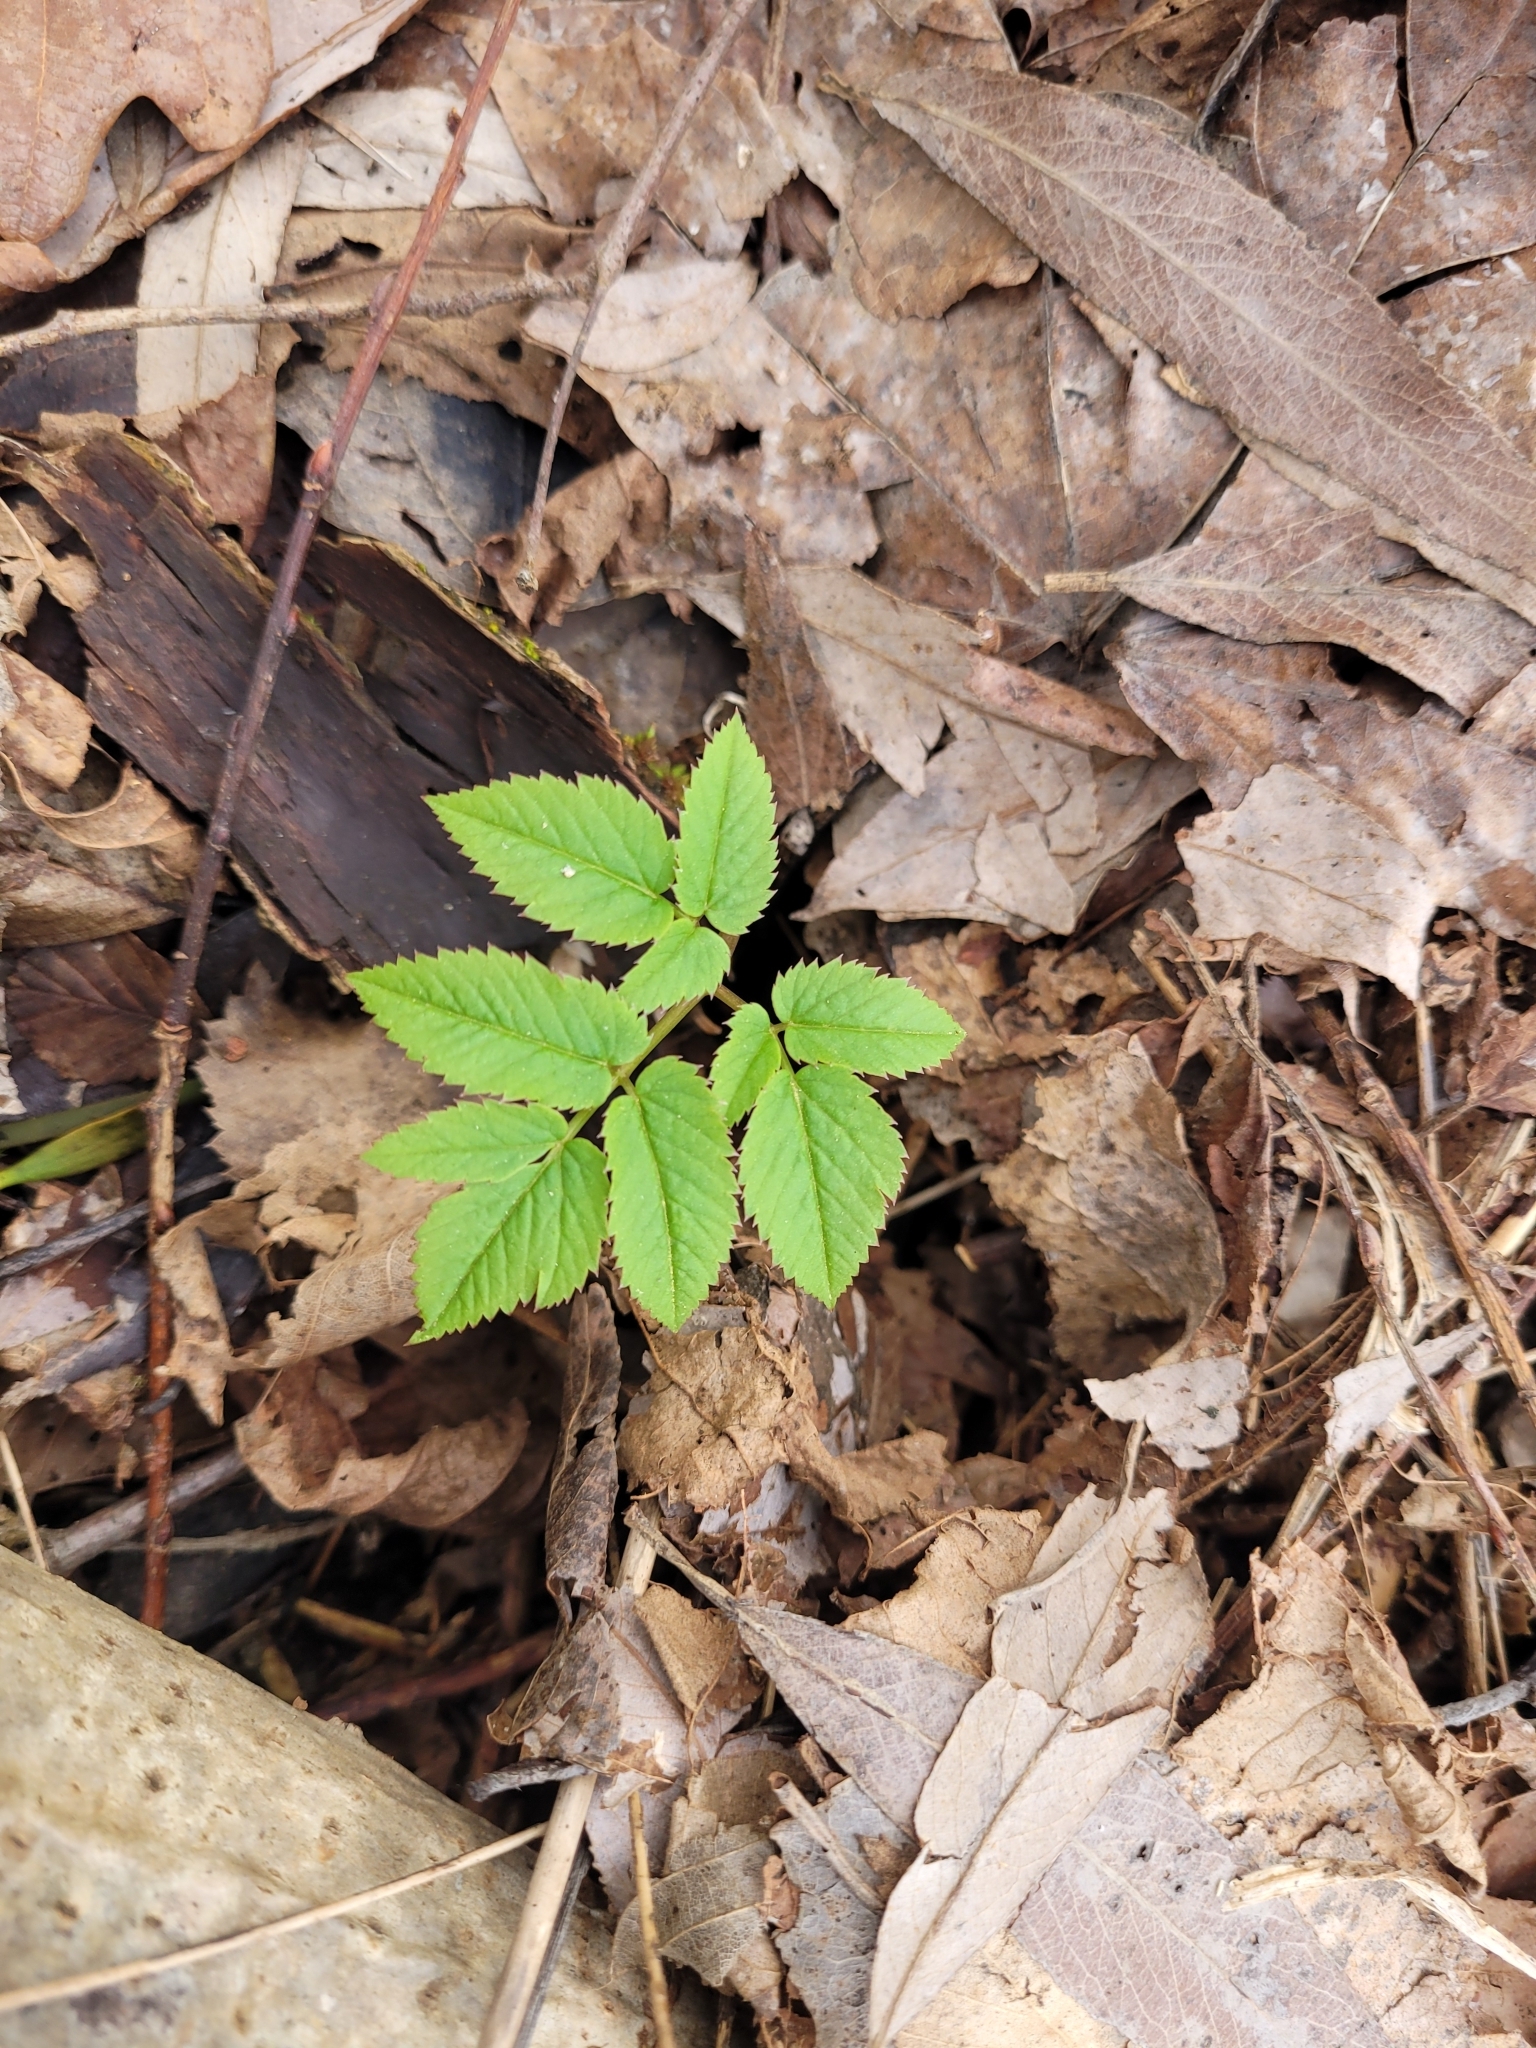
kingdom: Plantae
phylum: Tracheophyta
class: Magnoliopsida
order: Apiales
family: Apiaceae
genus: Aegopodium
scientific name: Aegopodium podagraria
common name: Ground-elder
